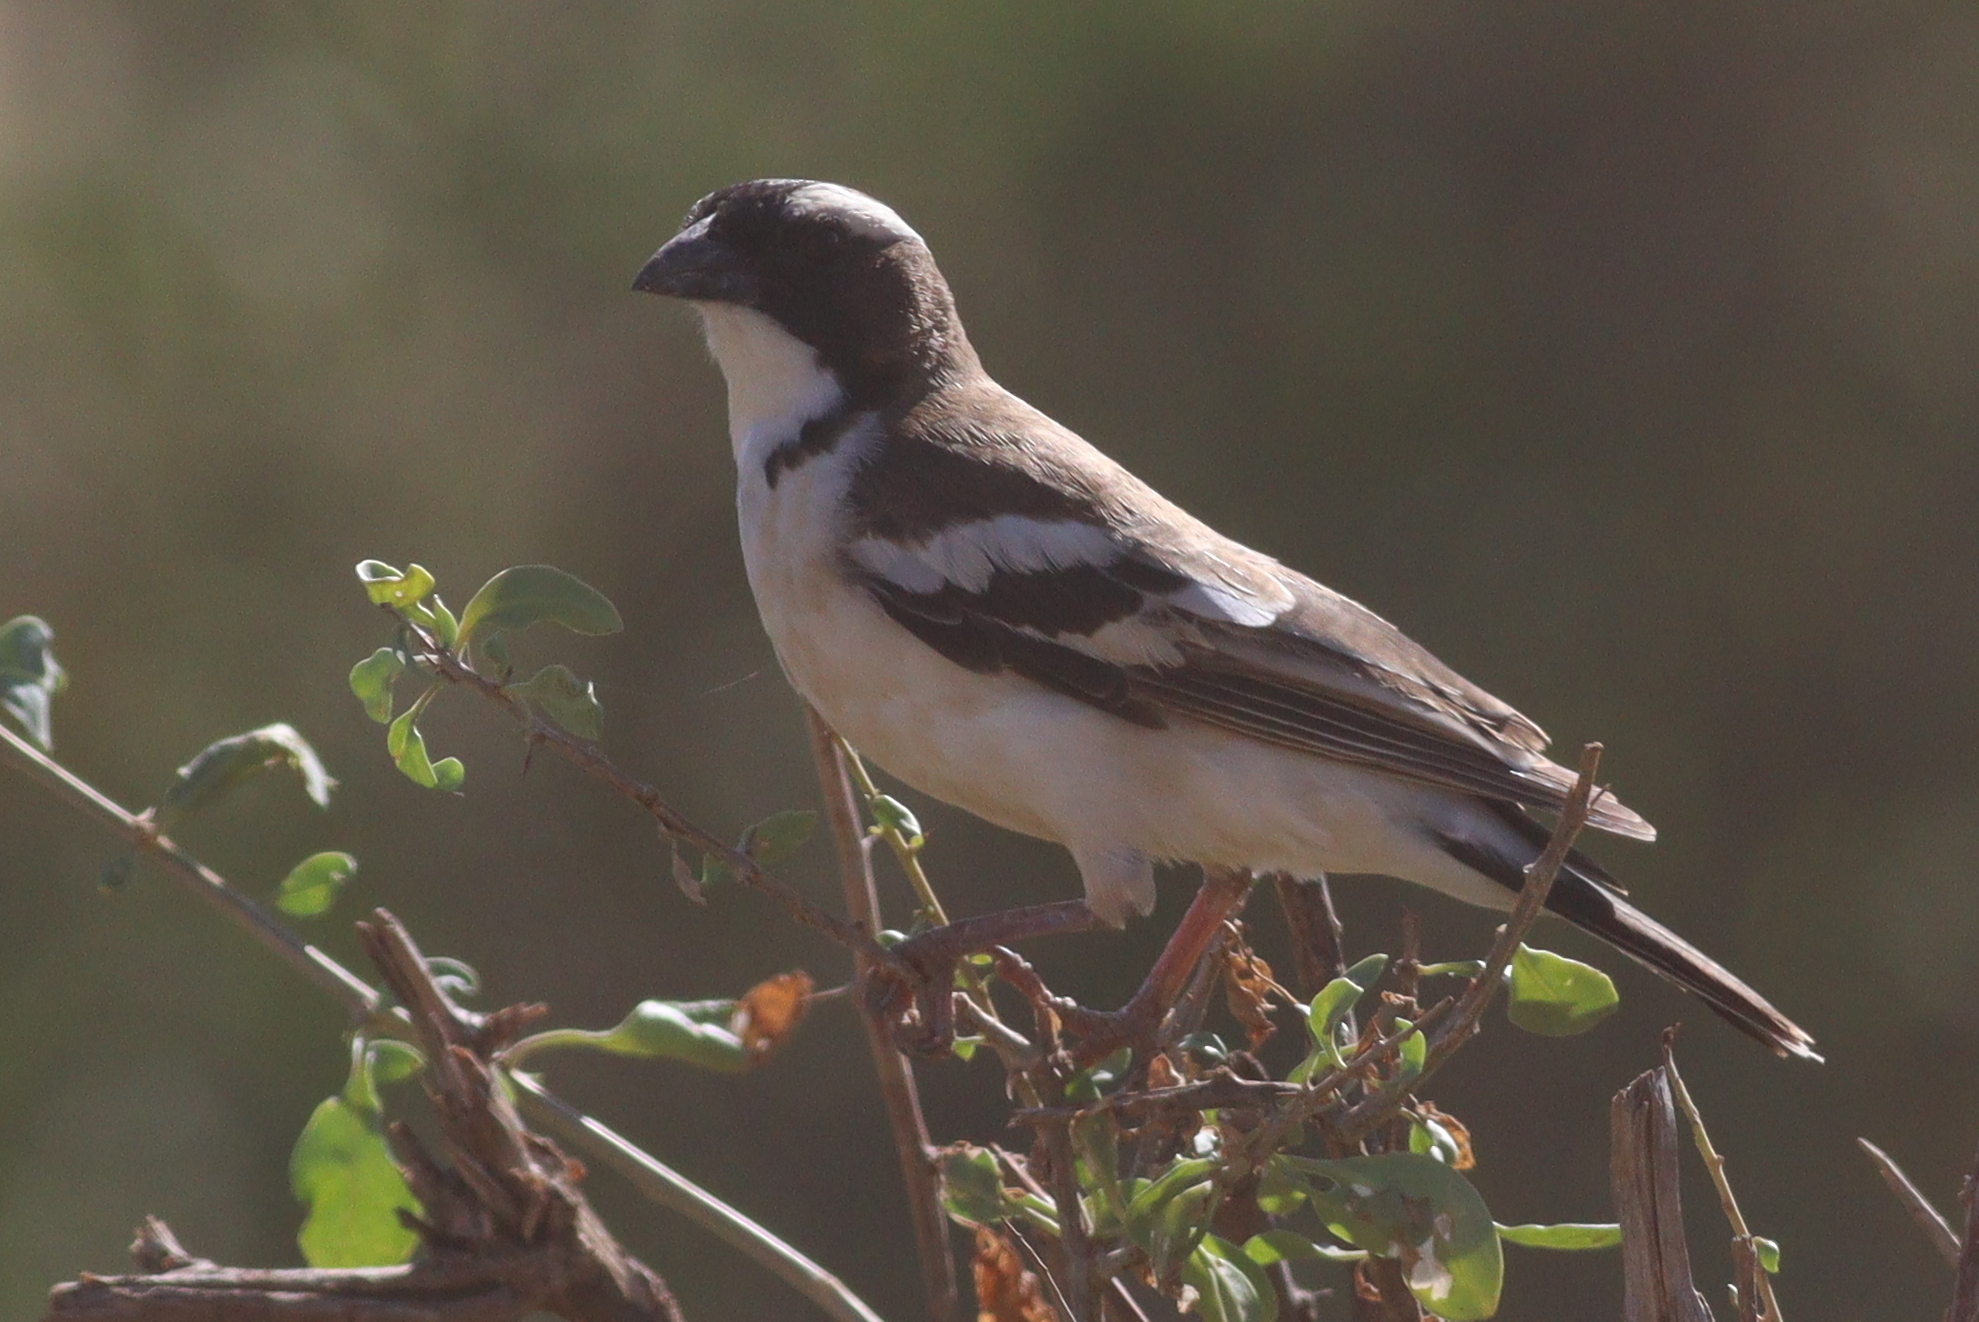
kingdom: Animalia
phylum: Chordata
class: Aves
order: Passeriformes
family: Passeridae
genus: Plocepasser
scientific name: Plocepasser mahali
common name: White-browed sparrow-weaver
